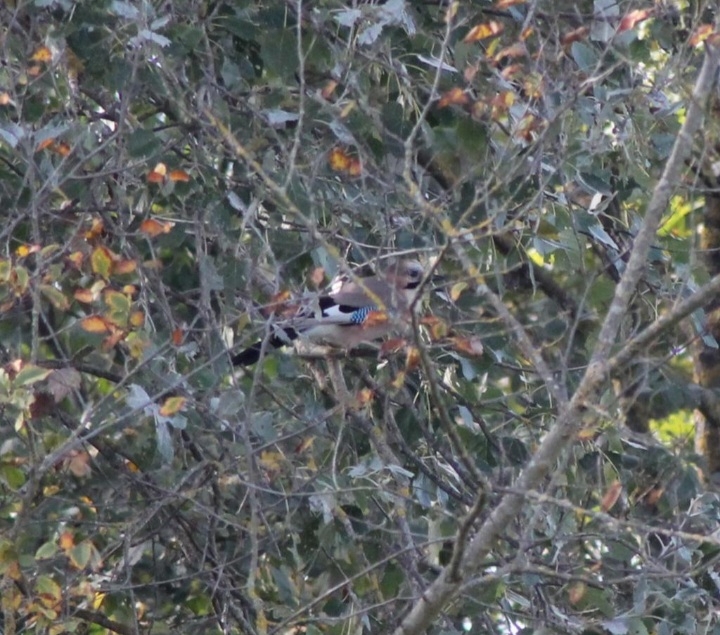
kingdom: Animalia
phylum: Chordata
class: Aves
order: Passeriformes
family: Corvidae
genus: Garrulus
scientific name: Garrulus glandarius
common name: Eurasian jay
